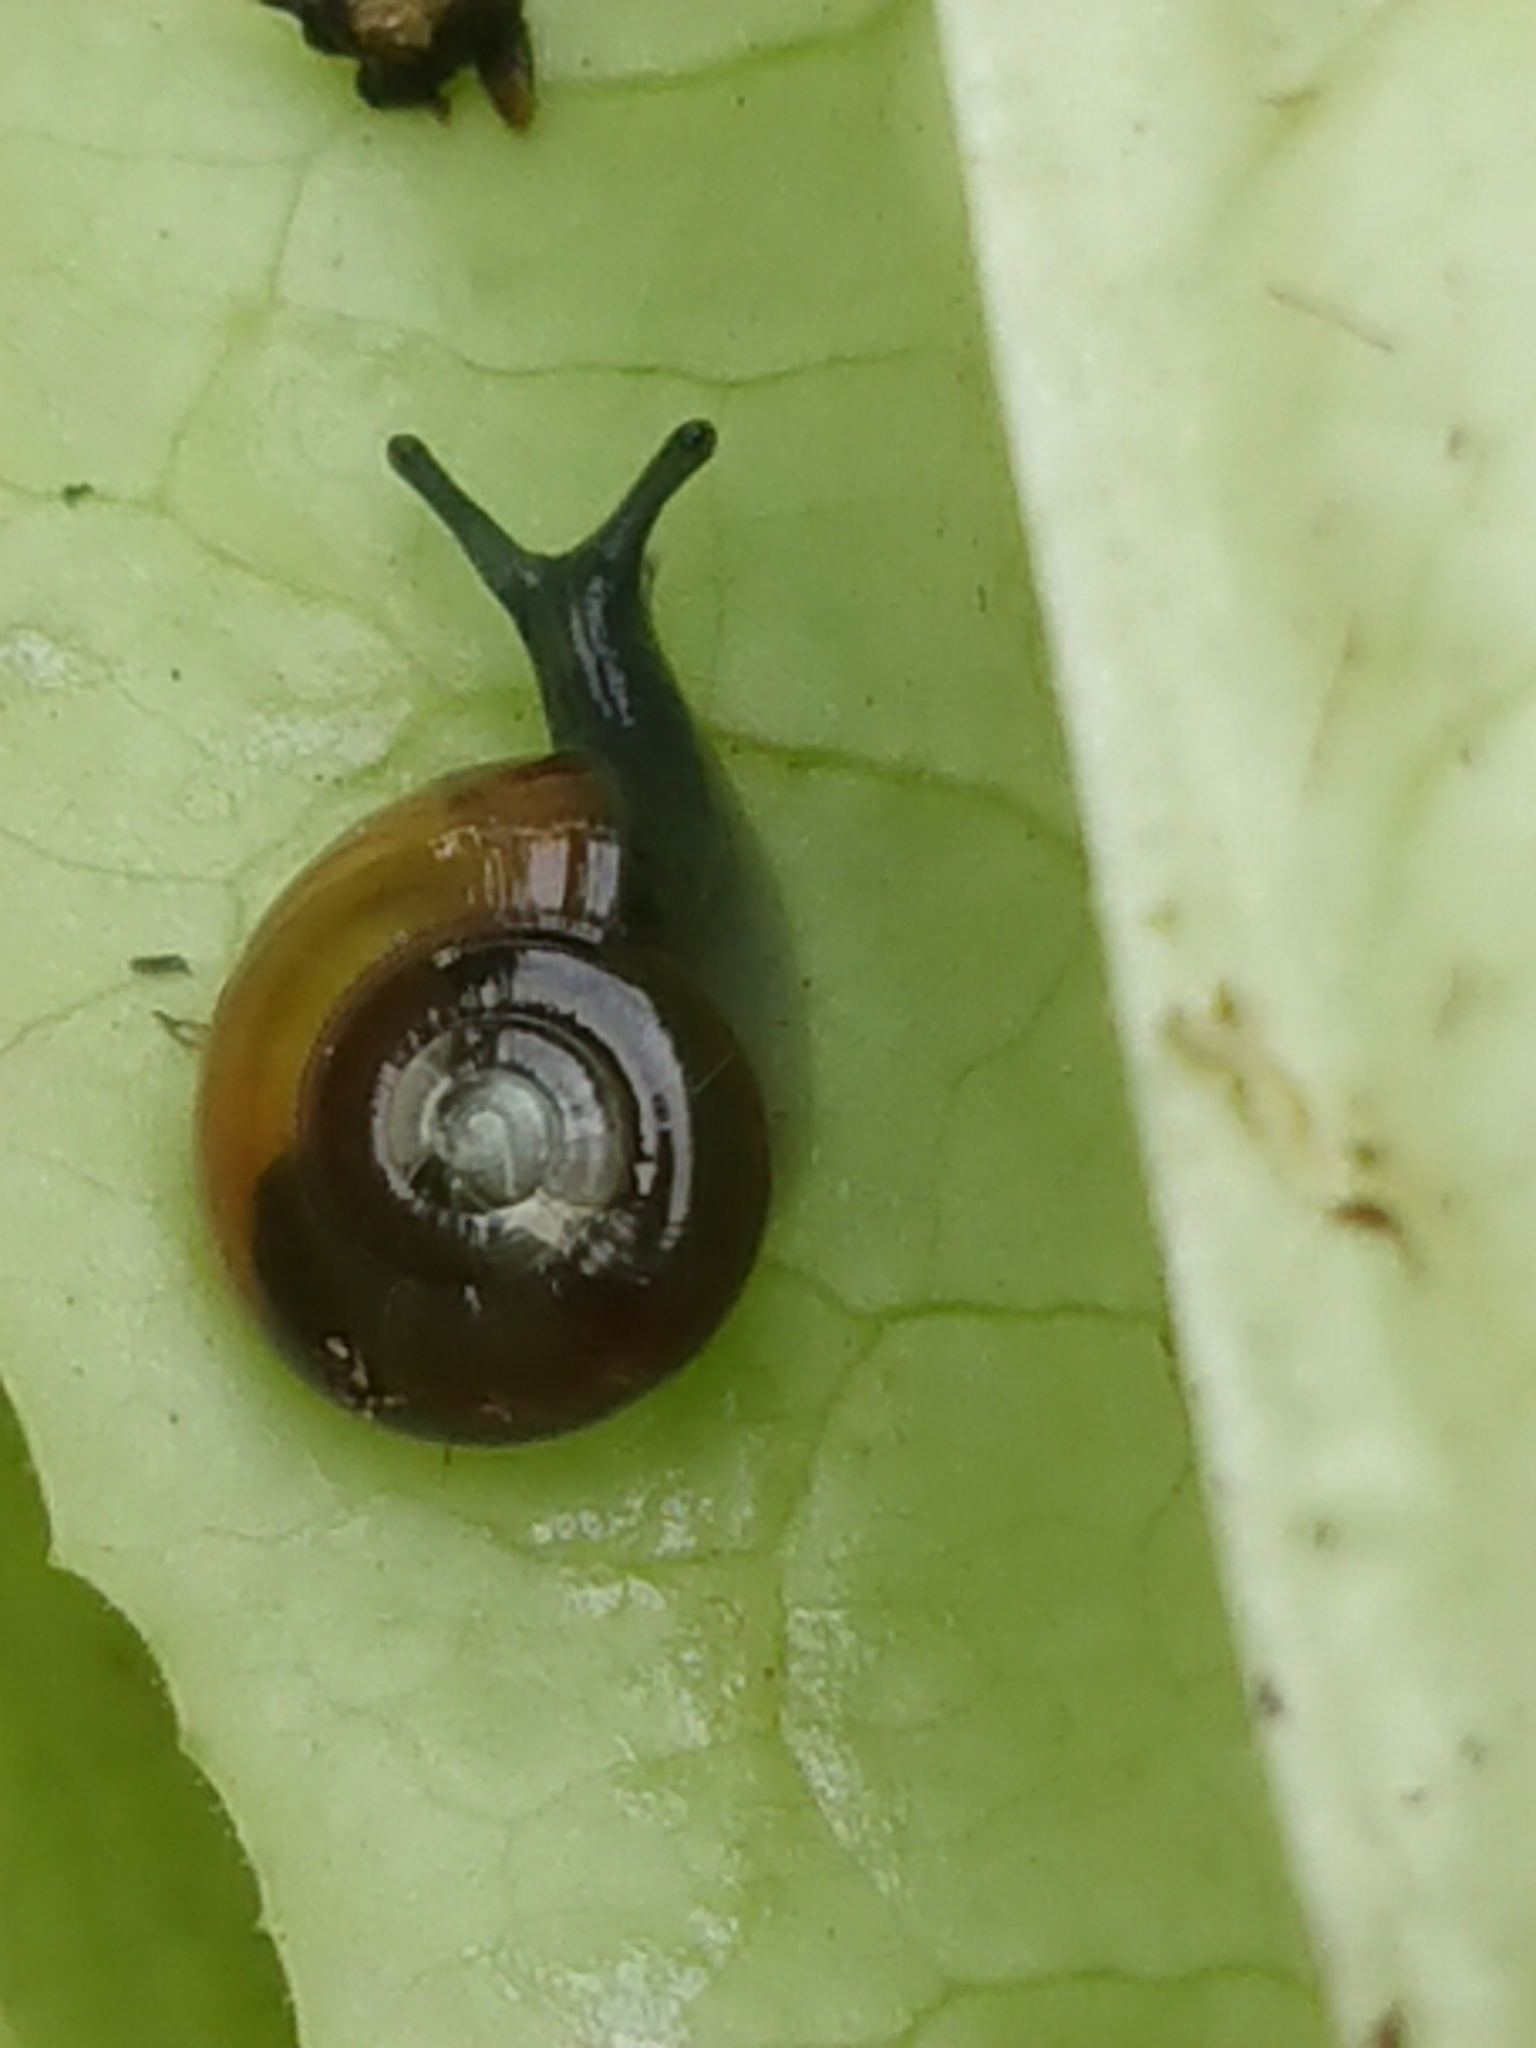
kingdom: Animalia
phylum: Mollusca
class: Gastropoda
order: Stylommatophora
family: Oxychilidae
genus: Oxychilus
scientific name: Oxychilus draparnaudi
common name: Draparnaud's glass snail
